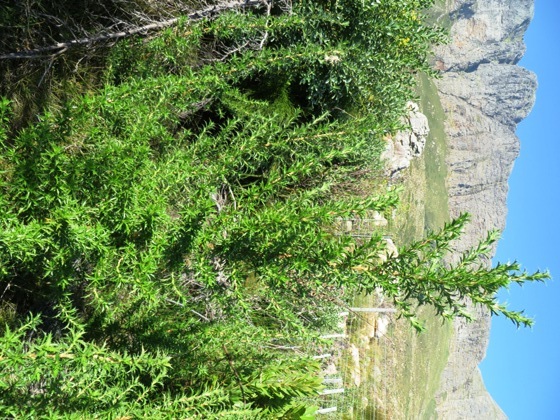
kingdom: Plantae
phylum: Tracheophyta
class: Magnoliopsida
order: Rosales
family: Rosaceae
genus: Cliffortia
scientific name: Cliffortia phillipsii
